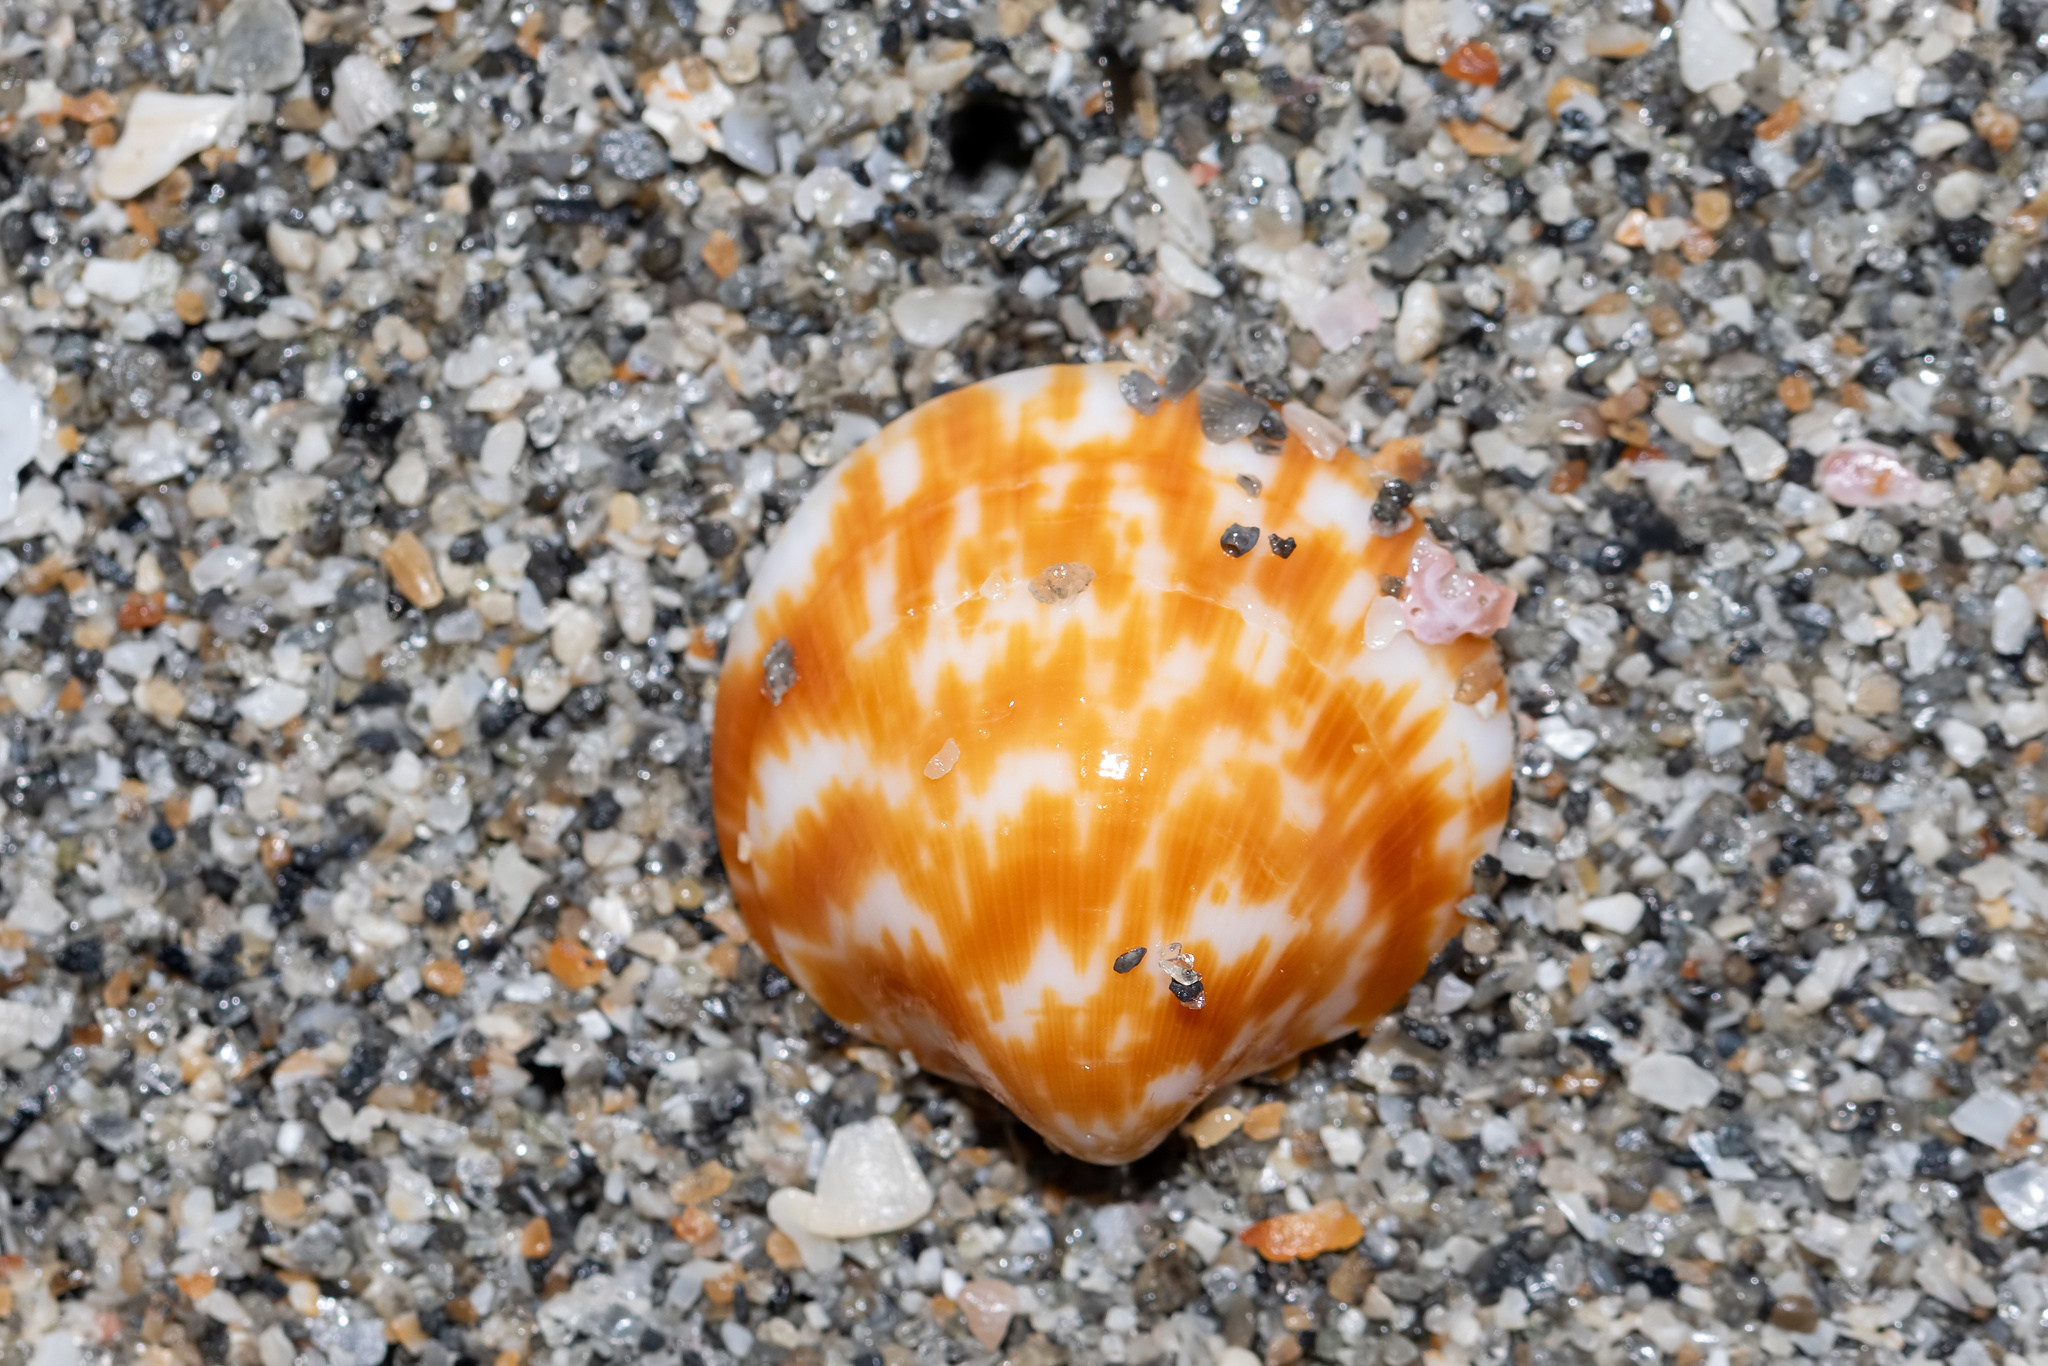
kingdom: Animalia
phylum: Mollusca
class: Bivalvia
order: Arcida
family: Glycymerididae
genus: Glycymeris
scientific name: Glycymeris americana
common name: American bittersweet
